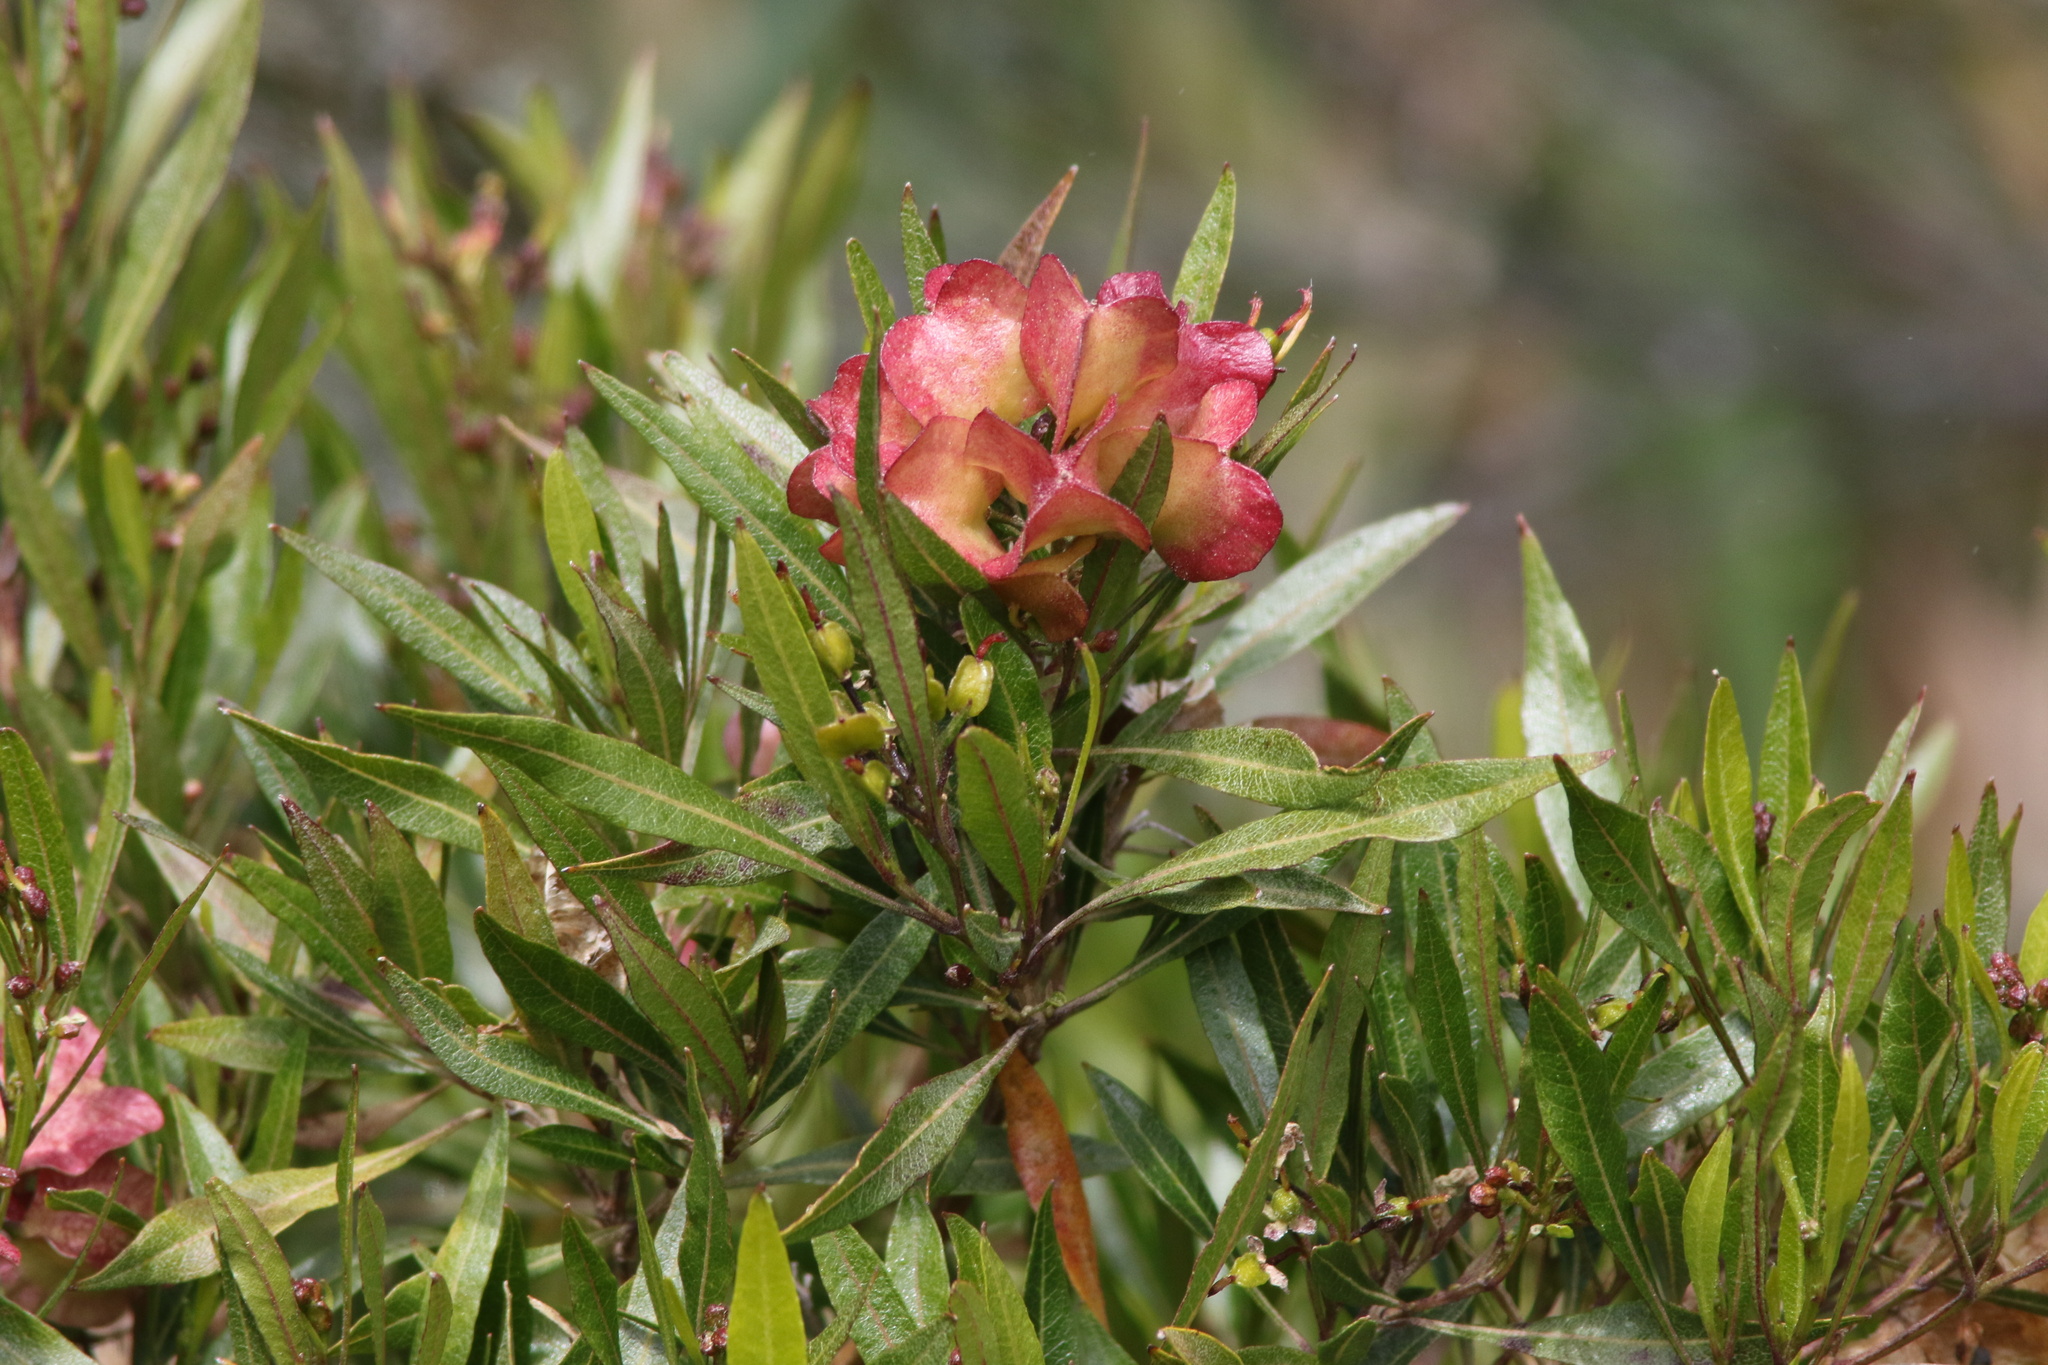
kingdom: Plantae
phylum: Tracheophyta
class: Magnoliopsida
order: Sapindales
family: Sapindaceae
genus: Dodonaea
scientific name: Dodonaea viscosa
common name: Hopbush
